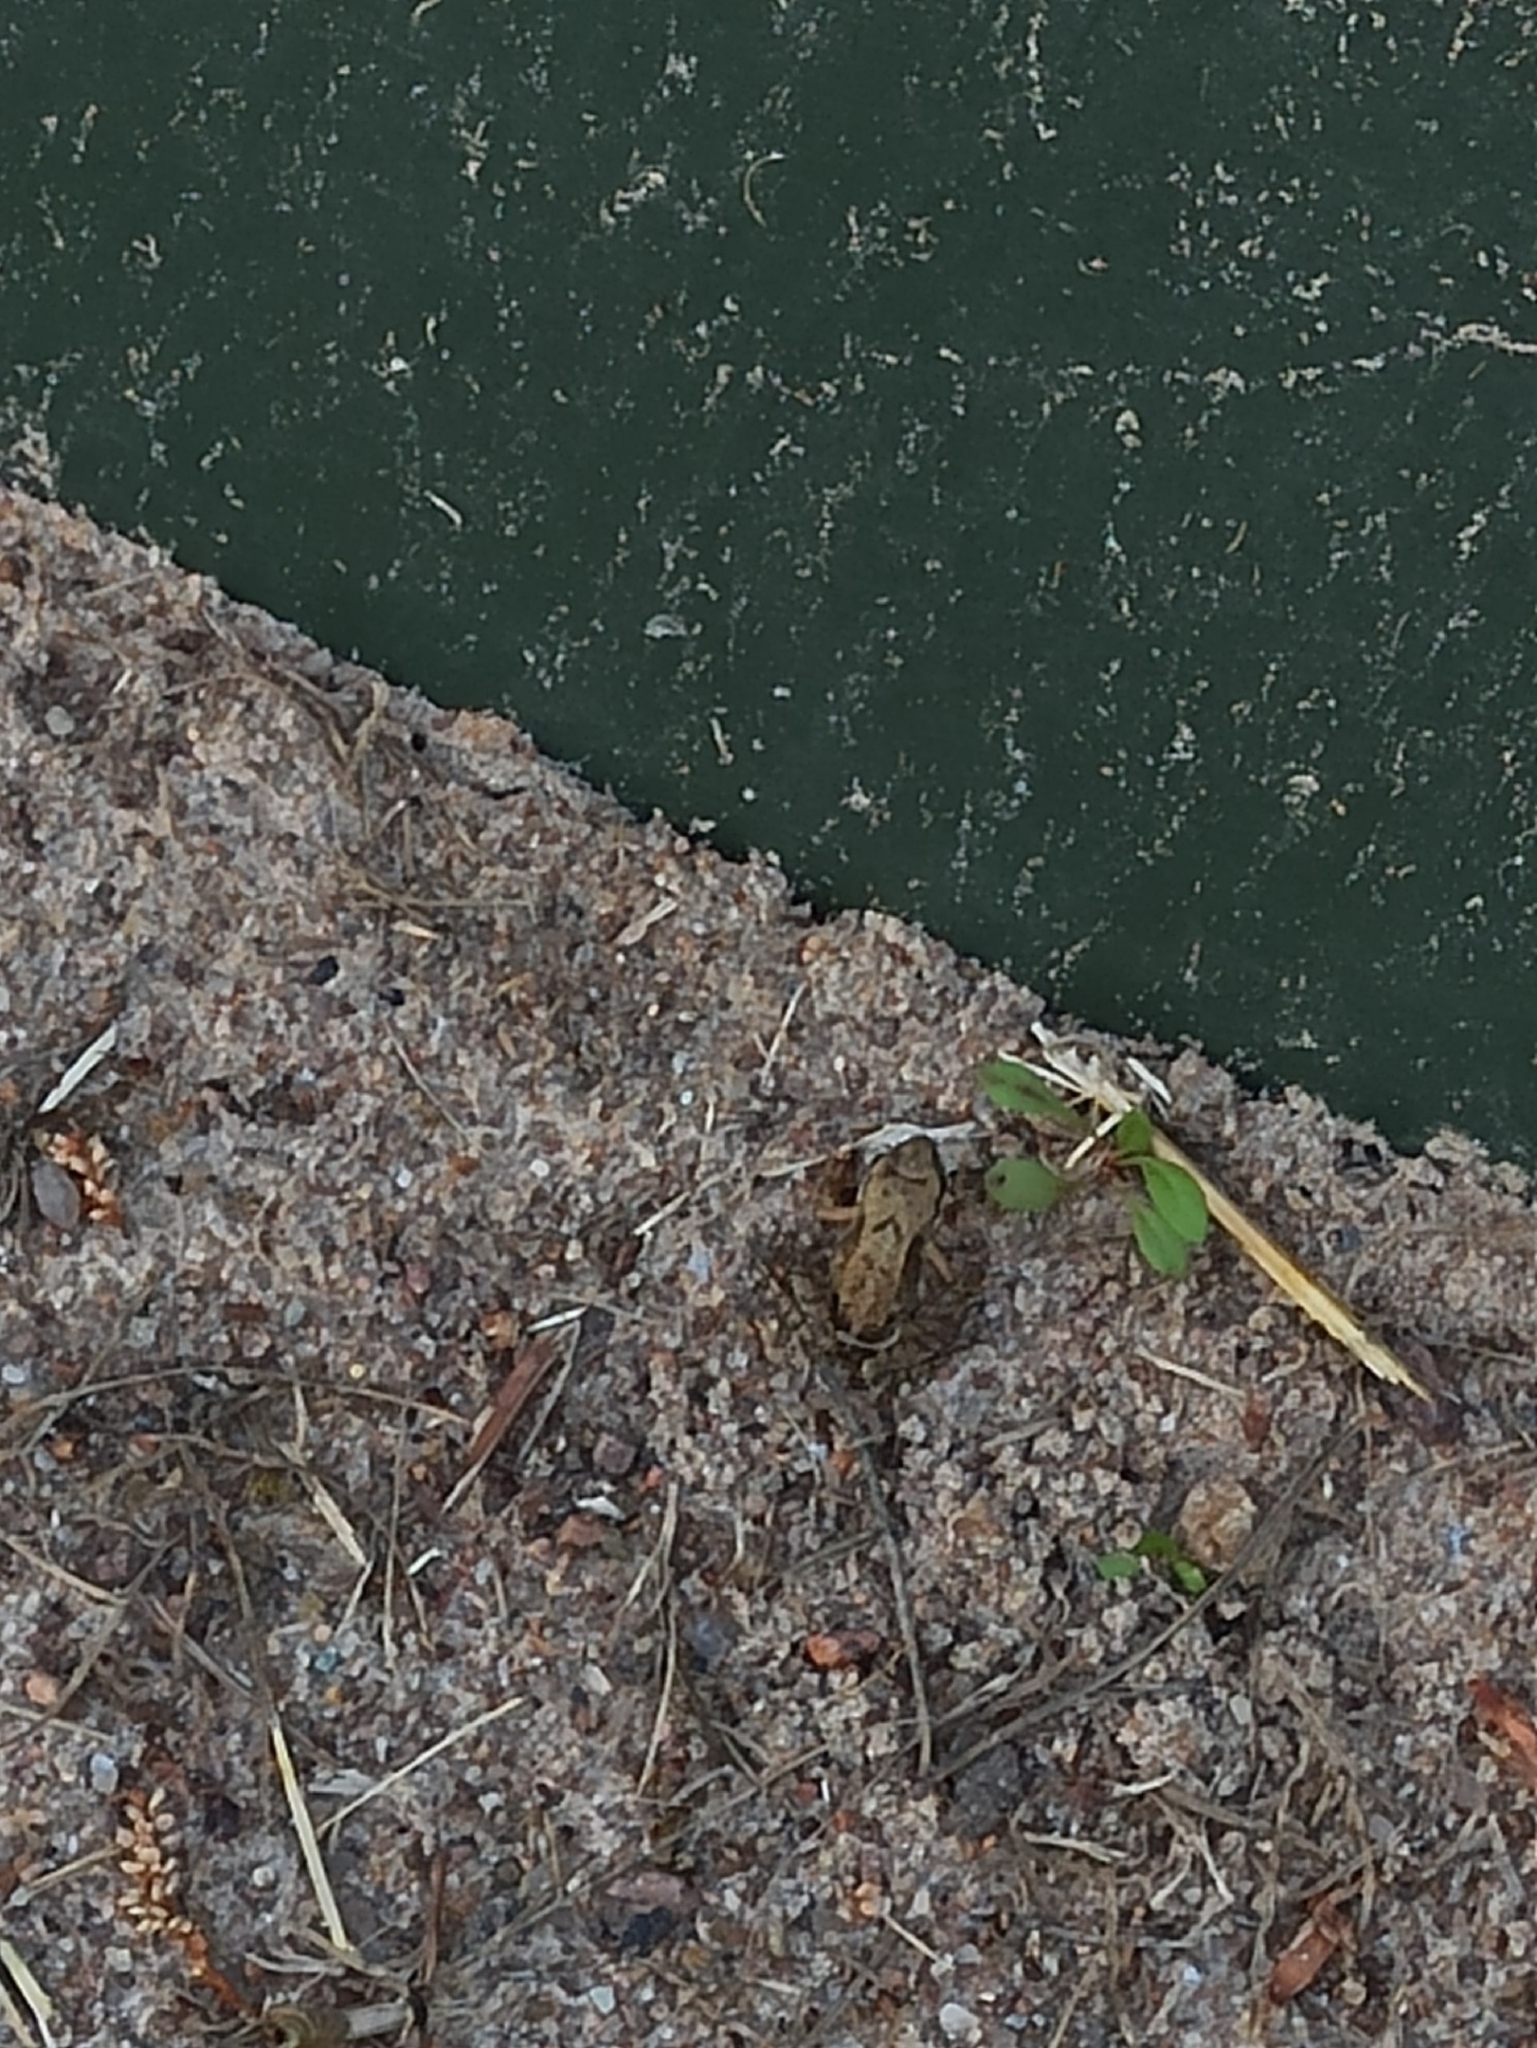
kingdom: Animalia
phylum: Chordata
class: Amphibia
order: Anura
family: Ranidae
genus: Rana
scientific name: Rana temporaria
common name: Common frog
